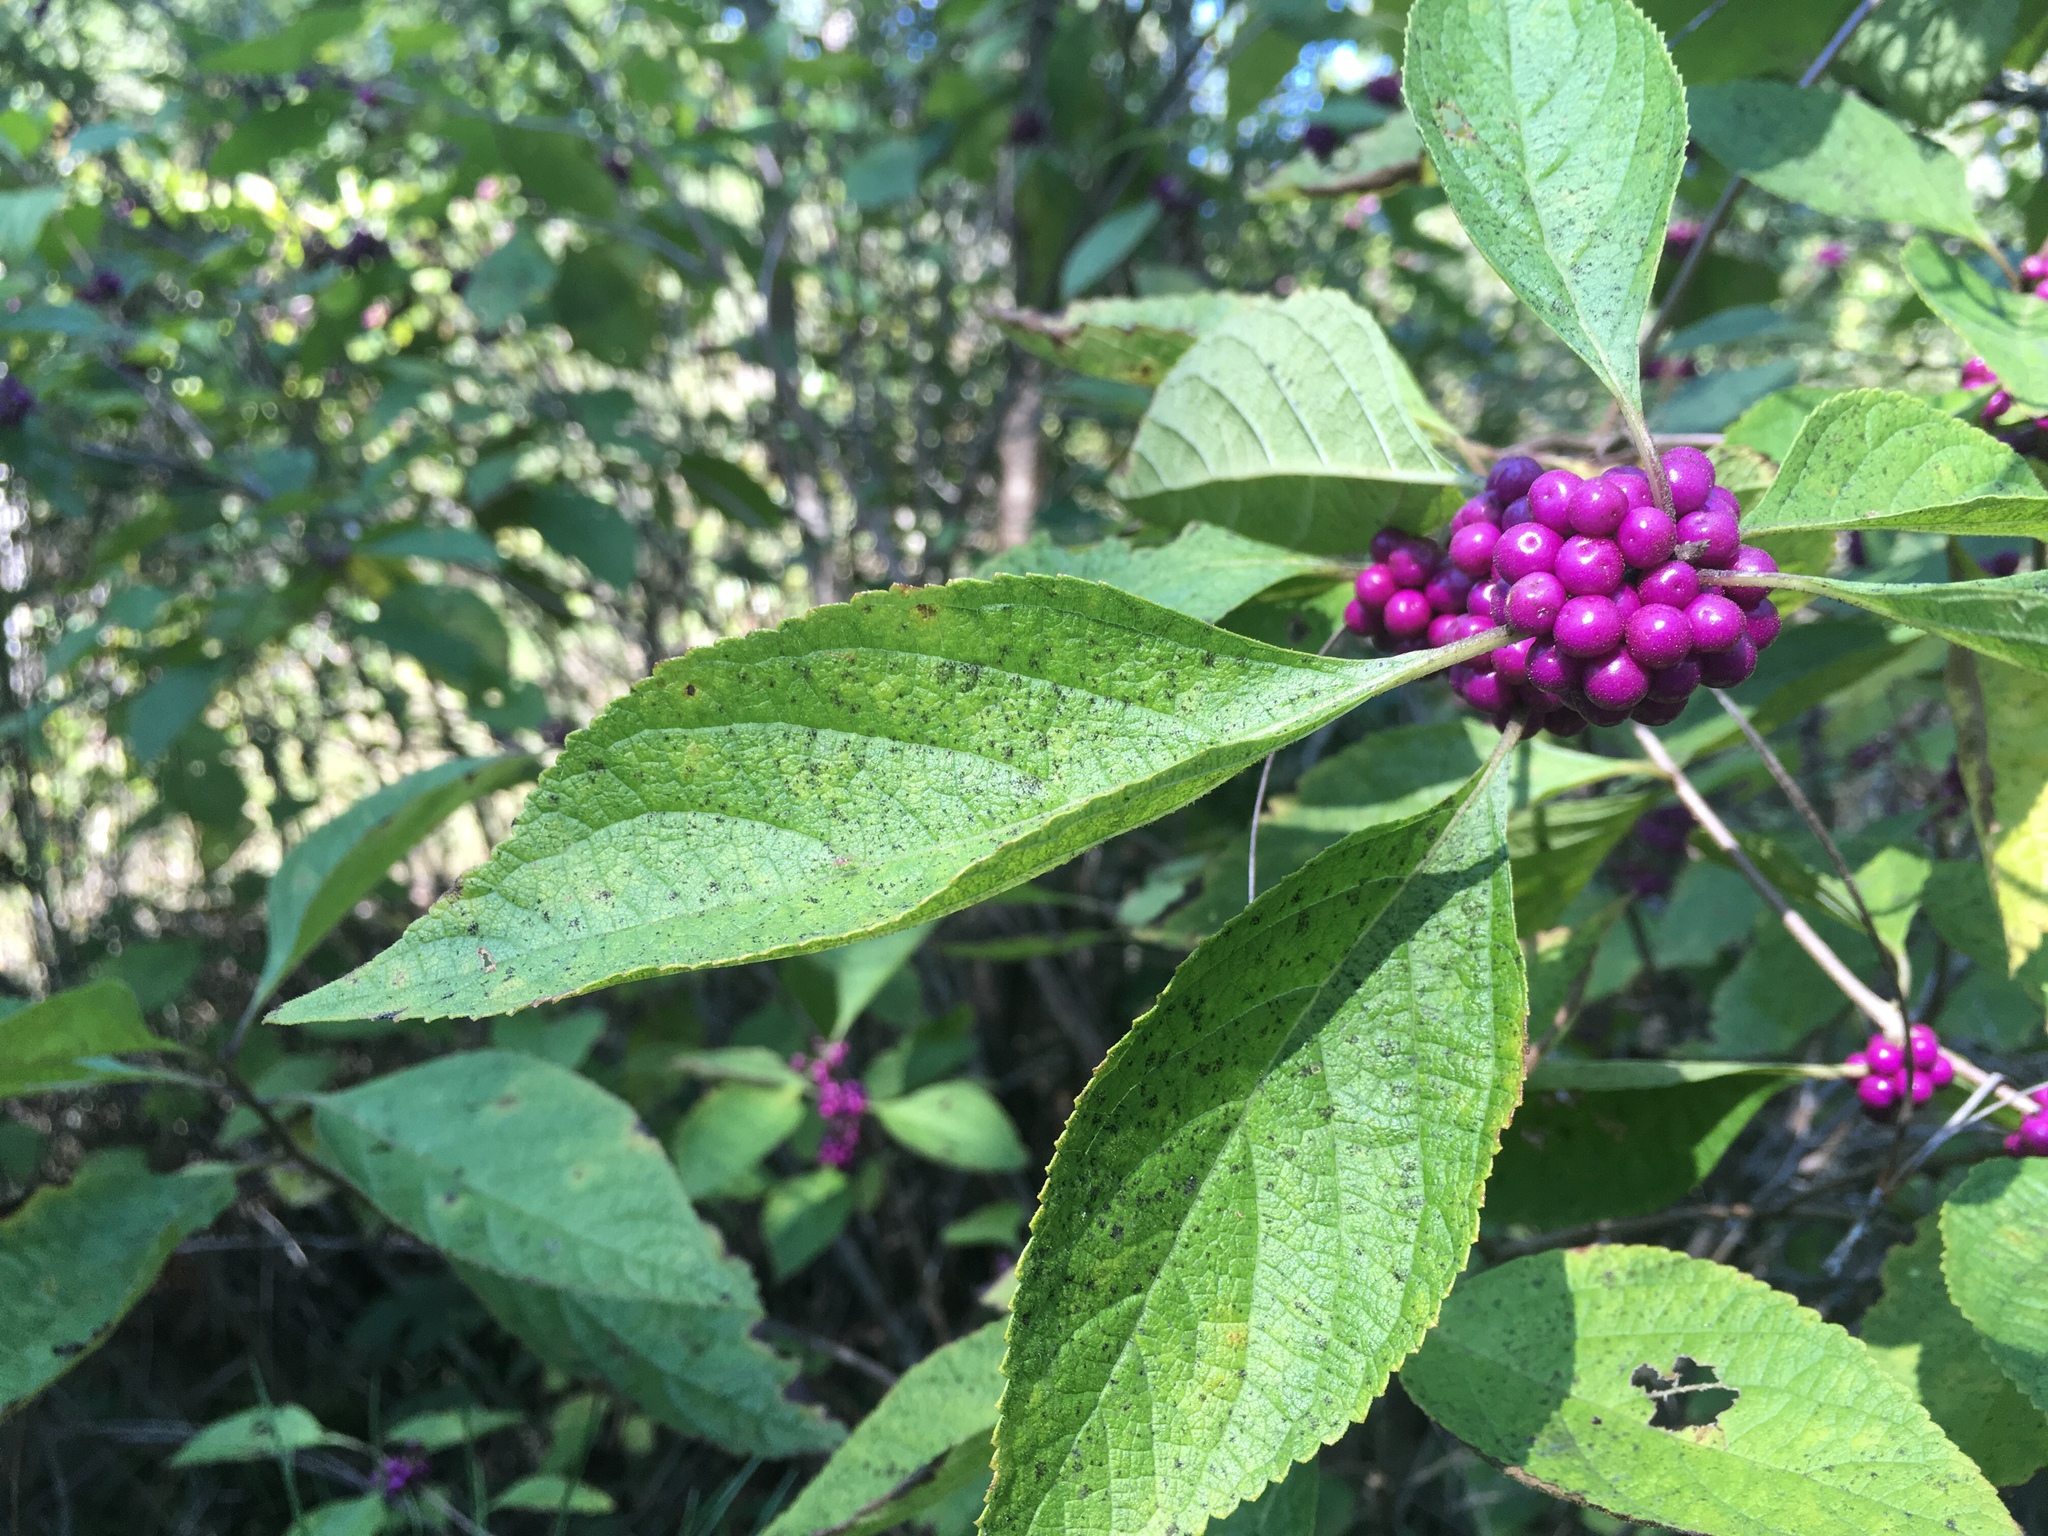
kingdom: Plantae
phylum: Tracheophyta
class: Magnoliopsida
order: Lamiales
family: Lamiaceae
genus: Callicarpa
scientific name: Callicarpa americana
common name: American beautyberry
